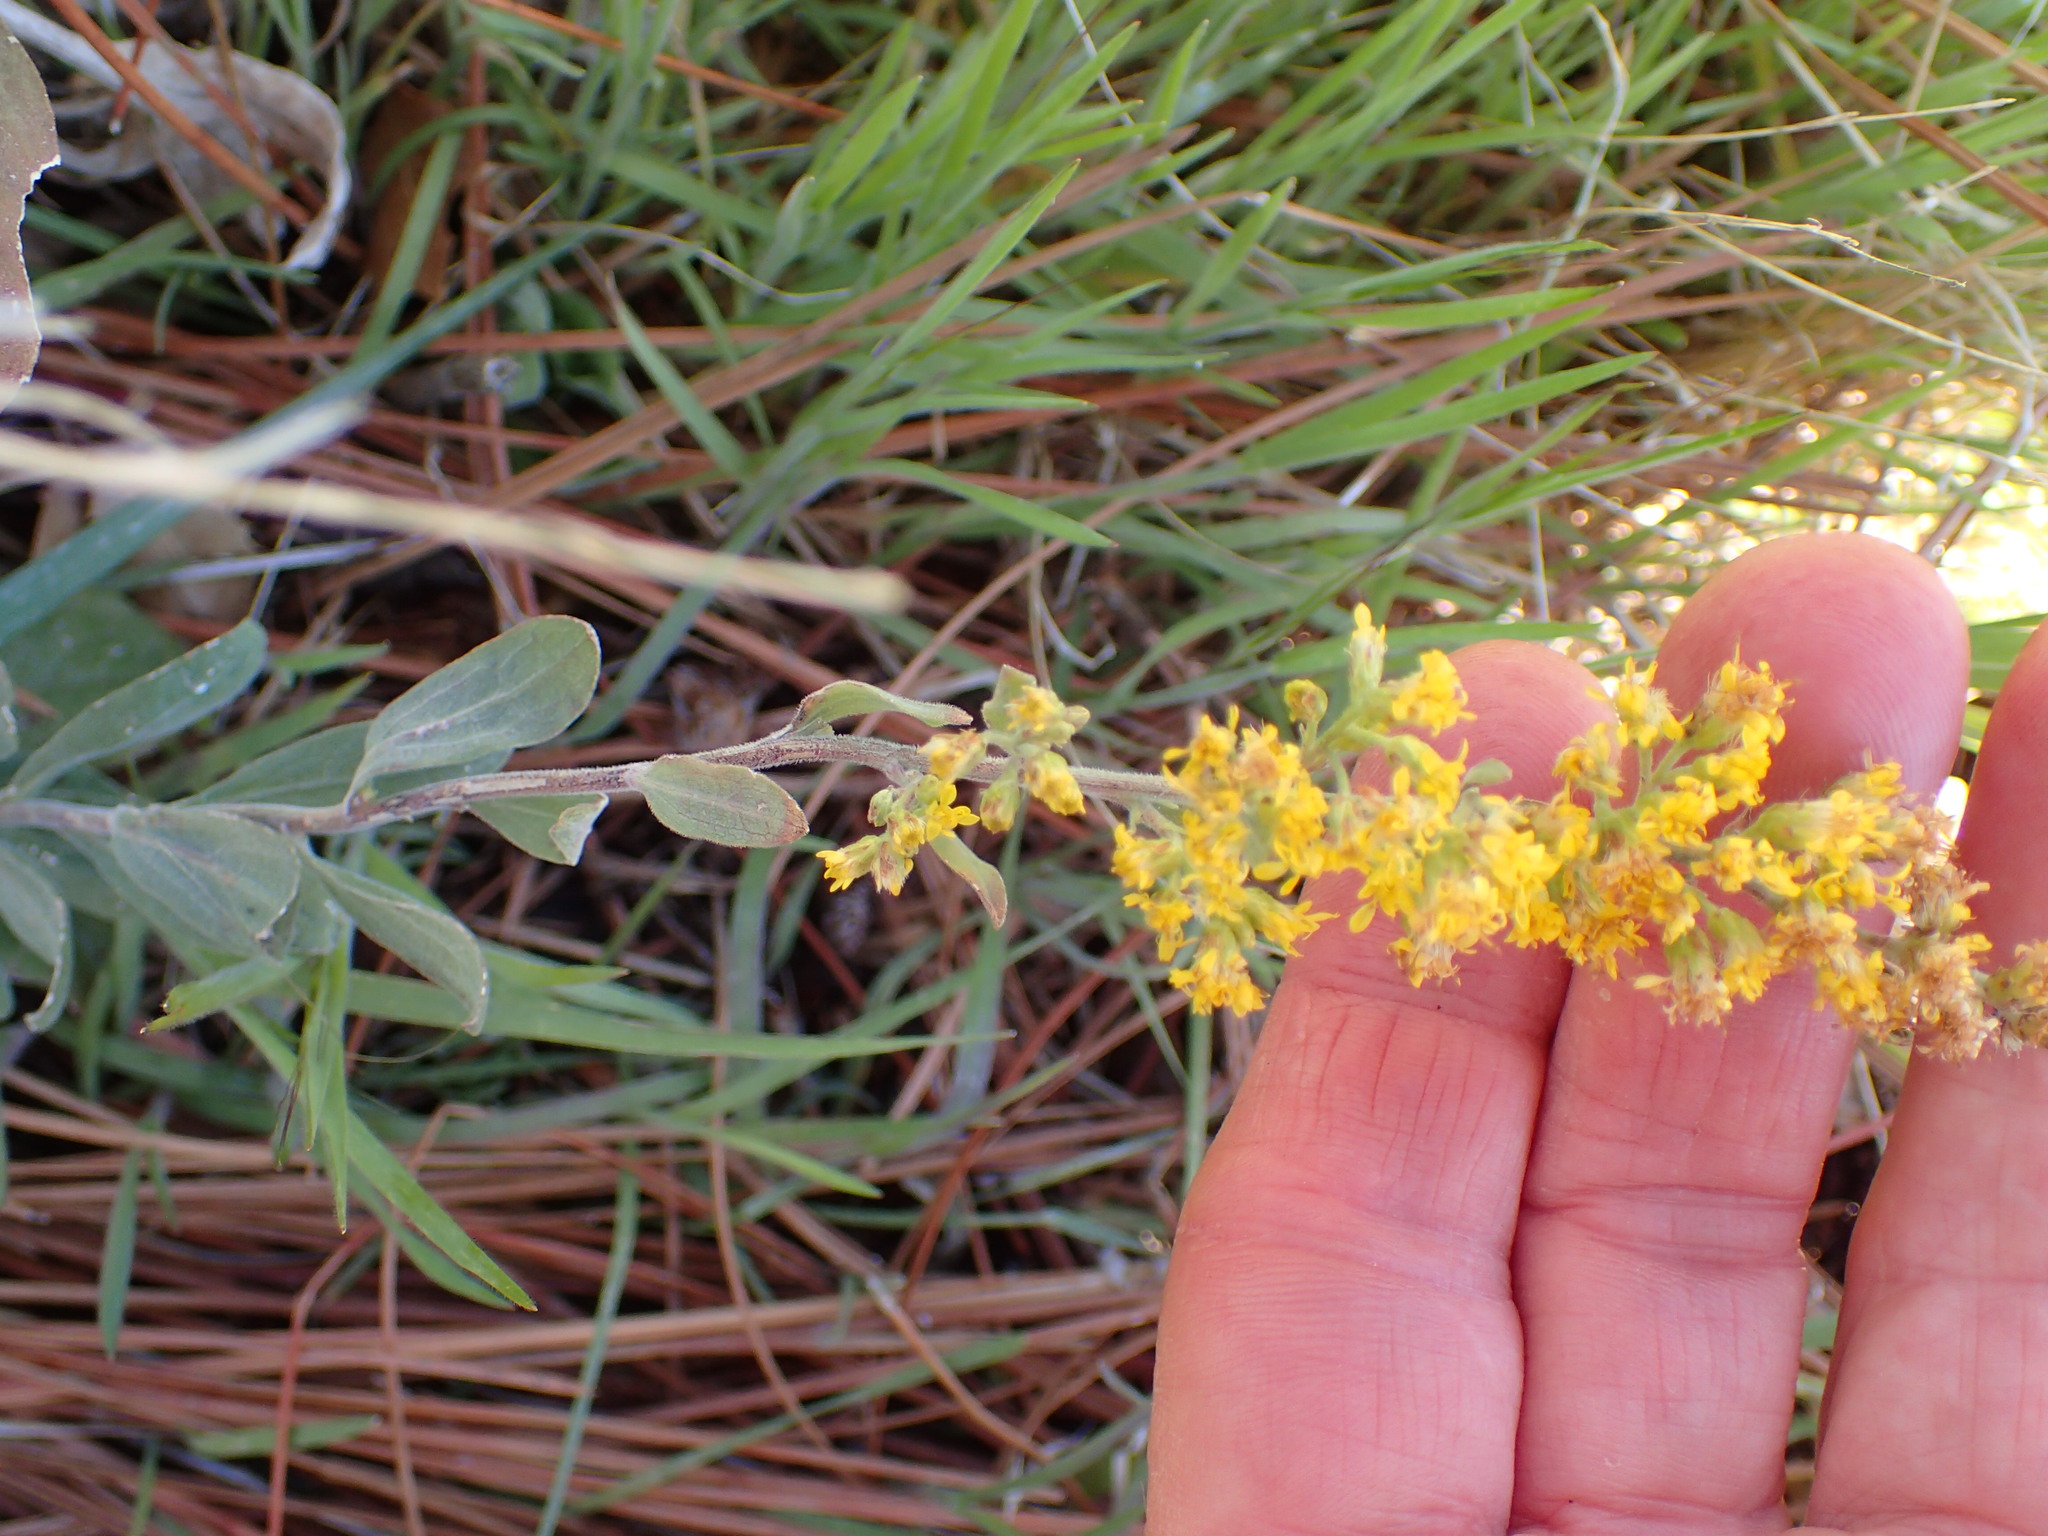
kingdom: Plantae
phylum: Tracheophyta
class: Magnoliopsida
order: Asterales
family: Asteraceae
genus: Solidago
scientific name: Solidago velutina
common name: Three-nerve goldenrod
